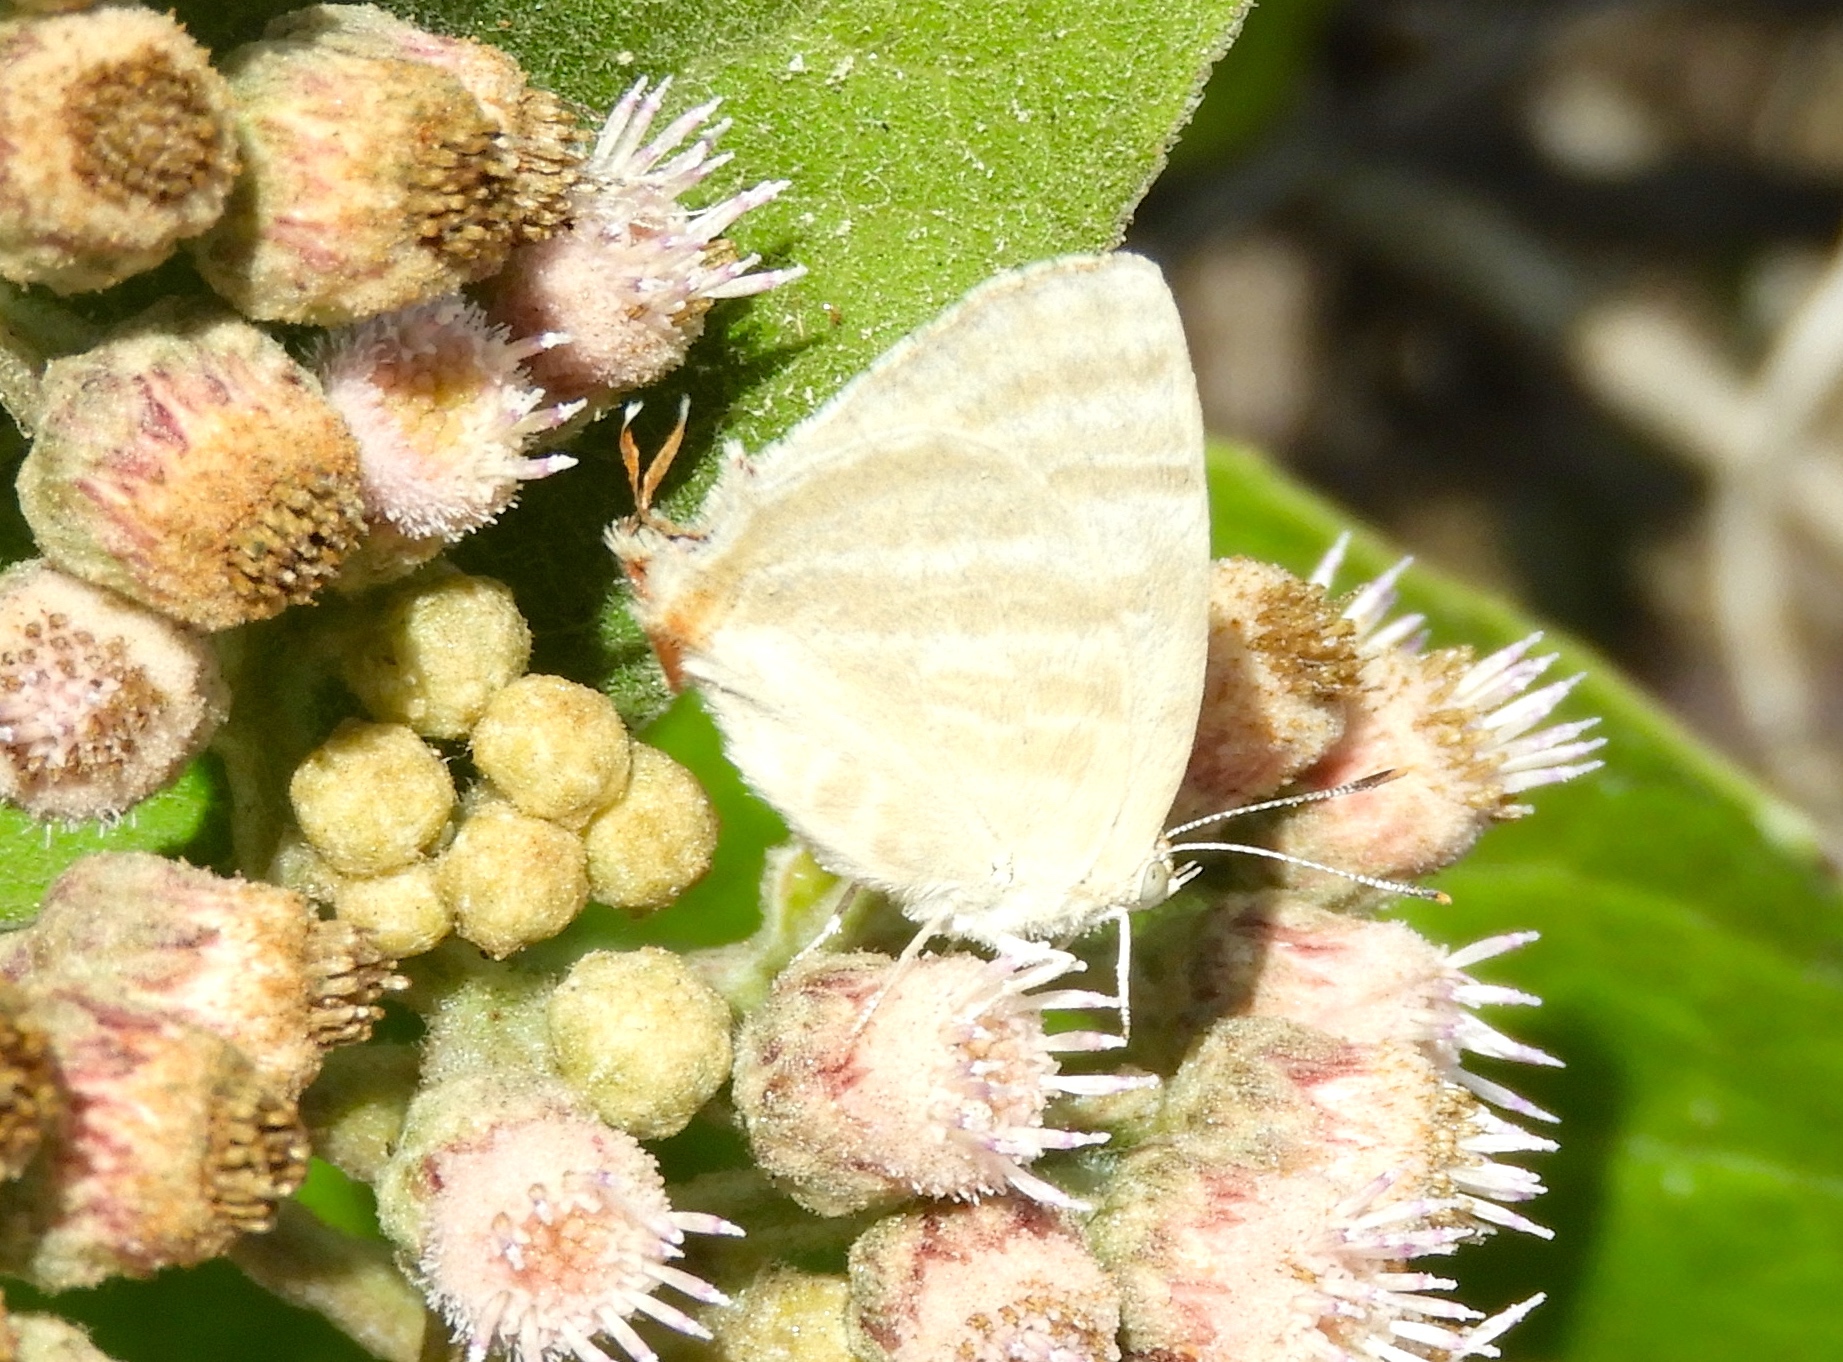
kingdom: Animalia
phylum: Arthropoda
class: Insecta
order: Lepidoptera
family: Lycaenidae
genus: Dolymorpha
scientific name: Dolymorpha jada
